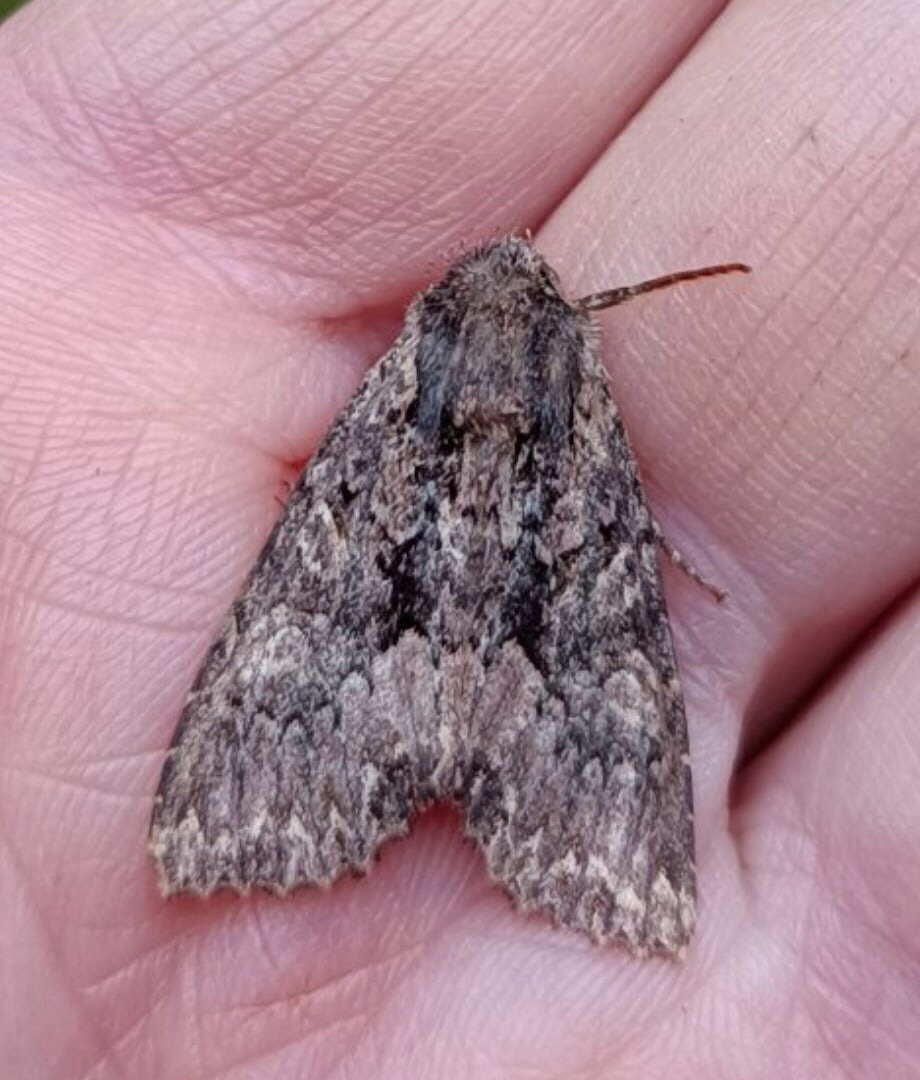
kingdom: Animalia
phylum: Arthropoda
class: Insecta
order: Lepidoptera
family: Noctuidae
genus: Mniotype
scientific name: Mniotype satura
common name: Beautiful arches
